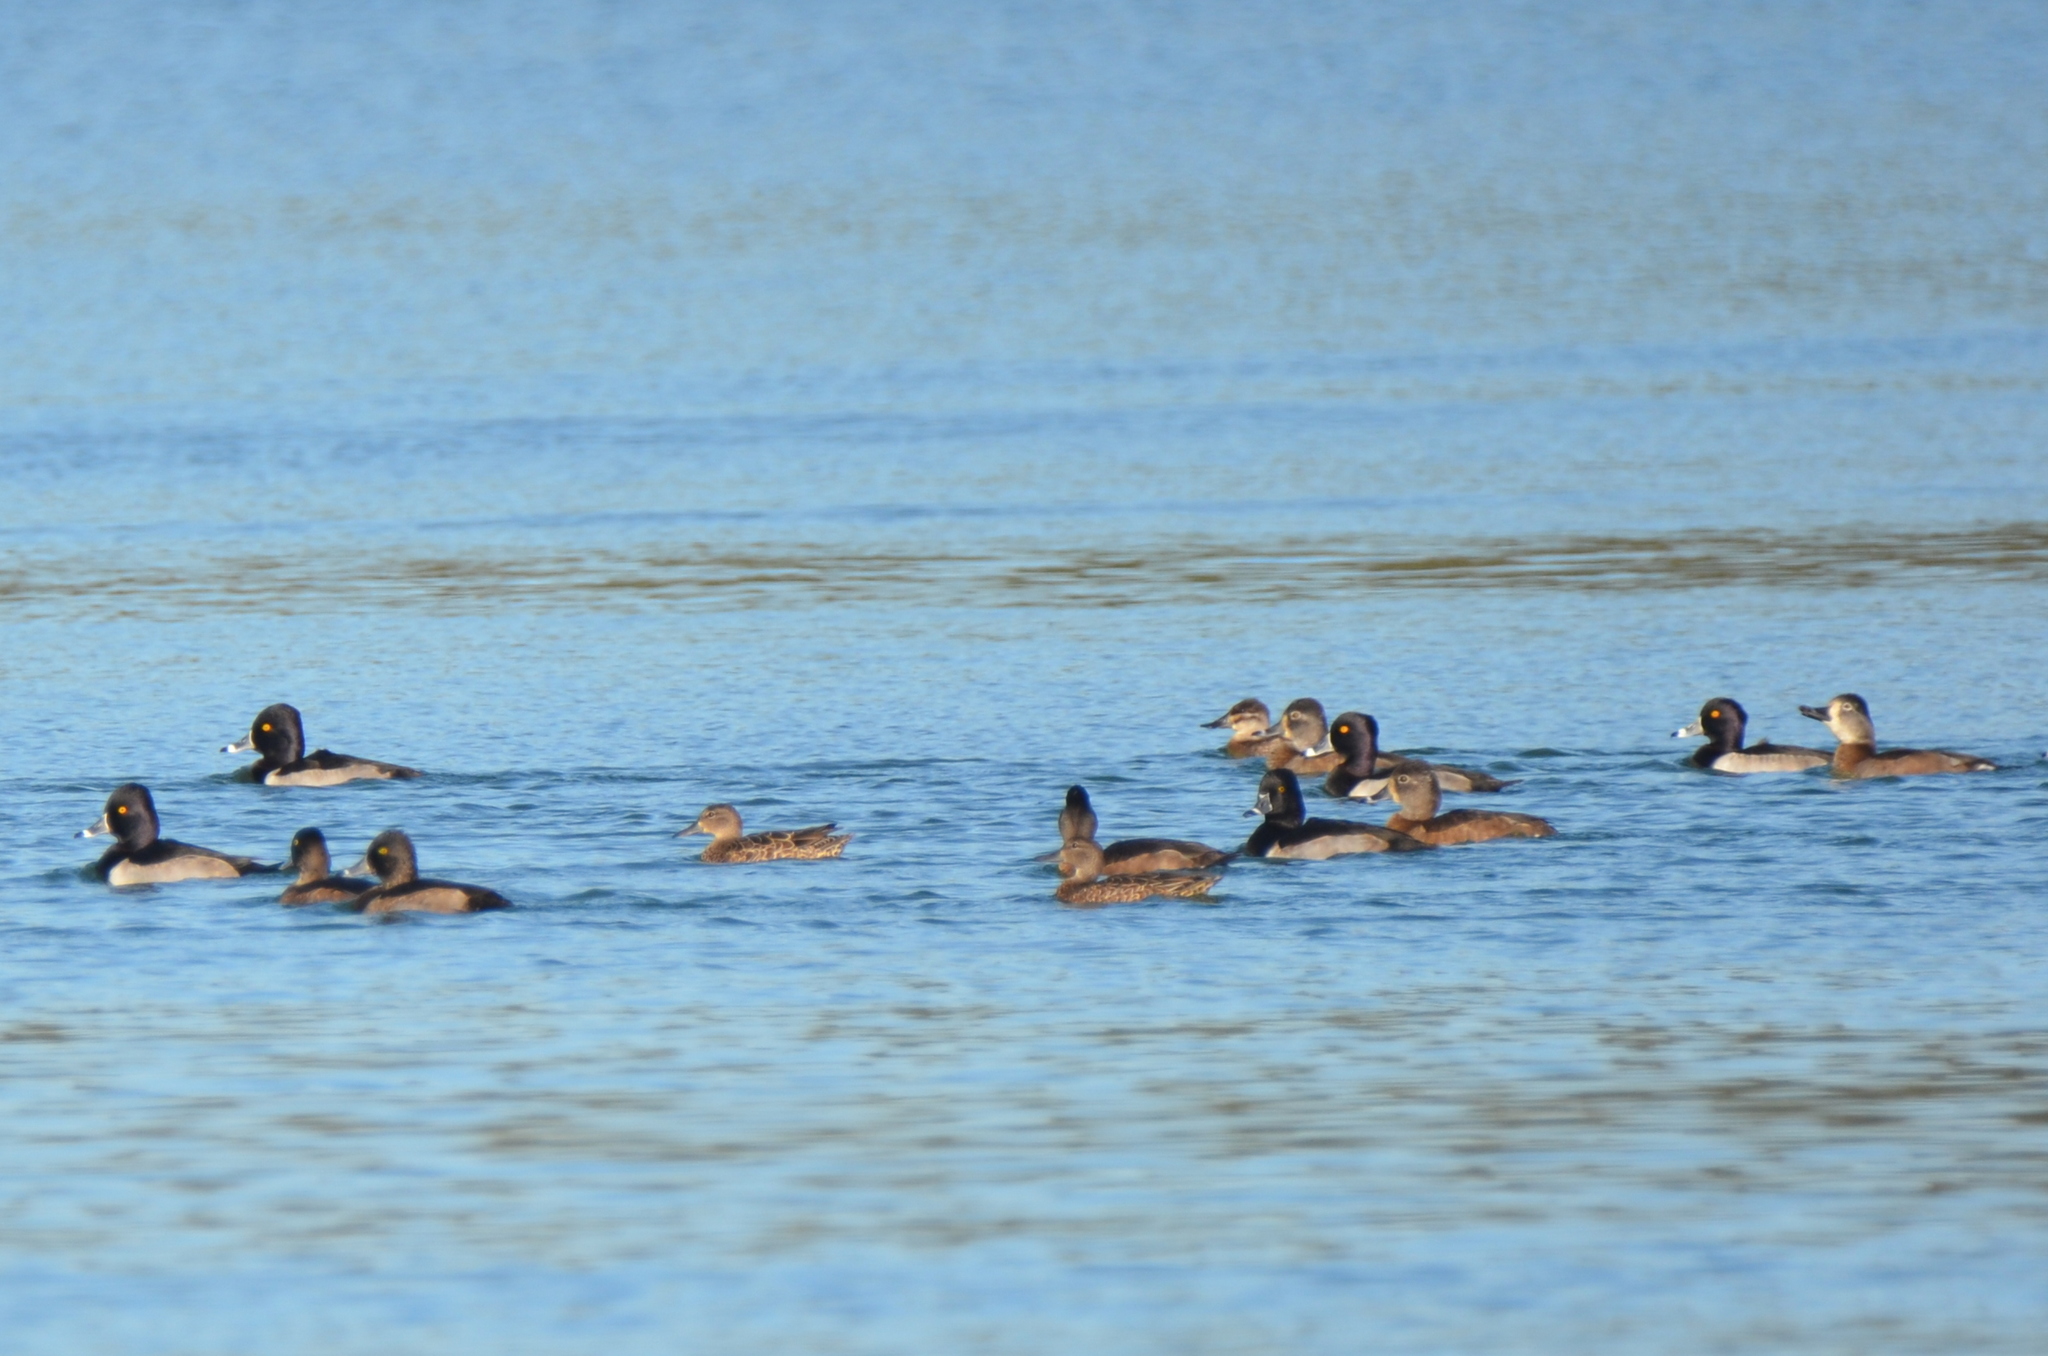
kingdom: Animalia
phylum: Chordata
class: Aves
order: Anseriformes
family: Anatidae
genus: Aythya
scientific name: Aythya collaris
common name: Ring-necked duck
